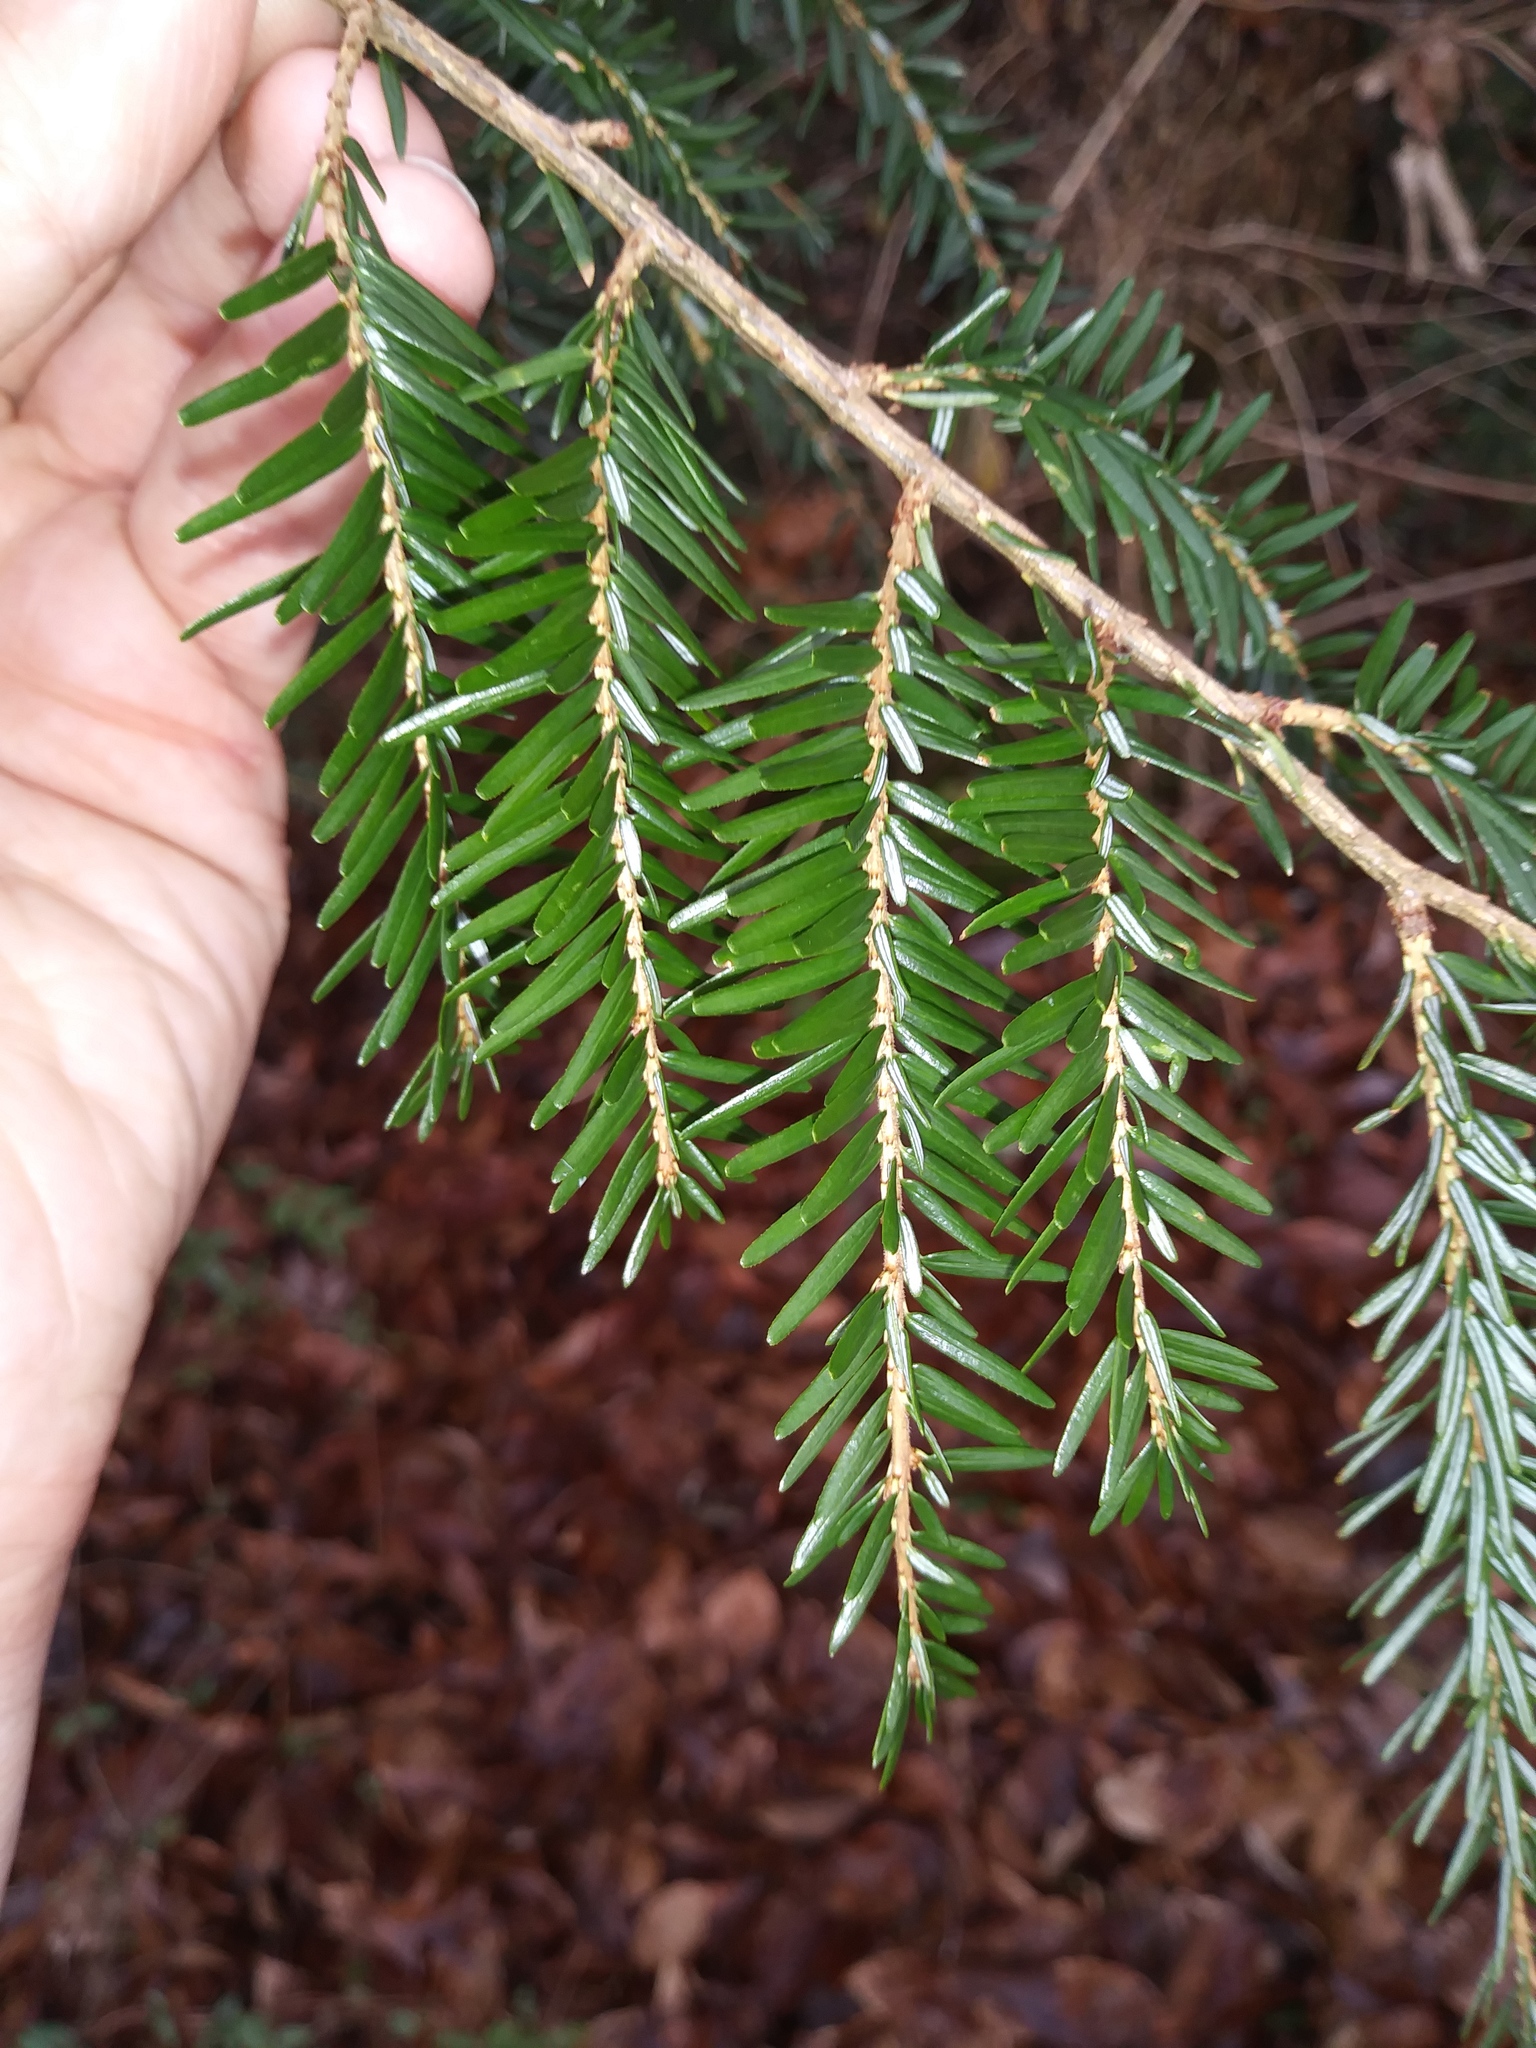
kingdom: Plantae
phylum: Tracheophyta
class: Pinopsida
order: Pinales
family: Pinaceae
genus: Tsuga
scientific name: Tsuga canadensis
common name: Eastern hemlock
